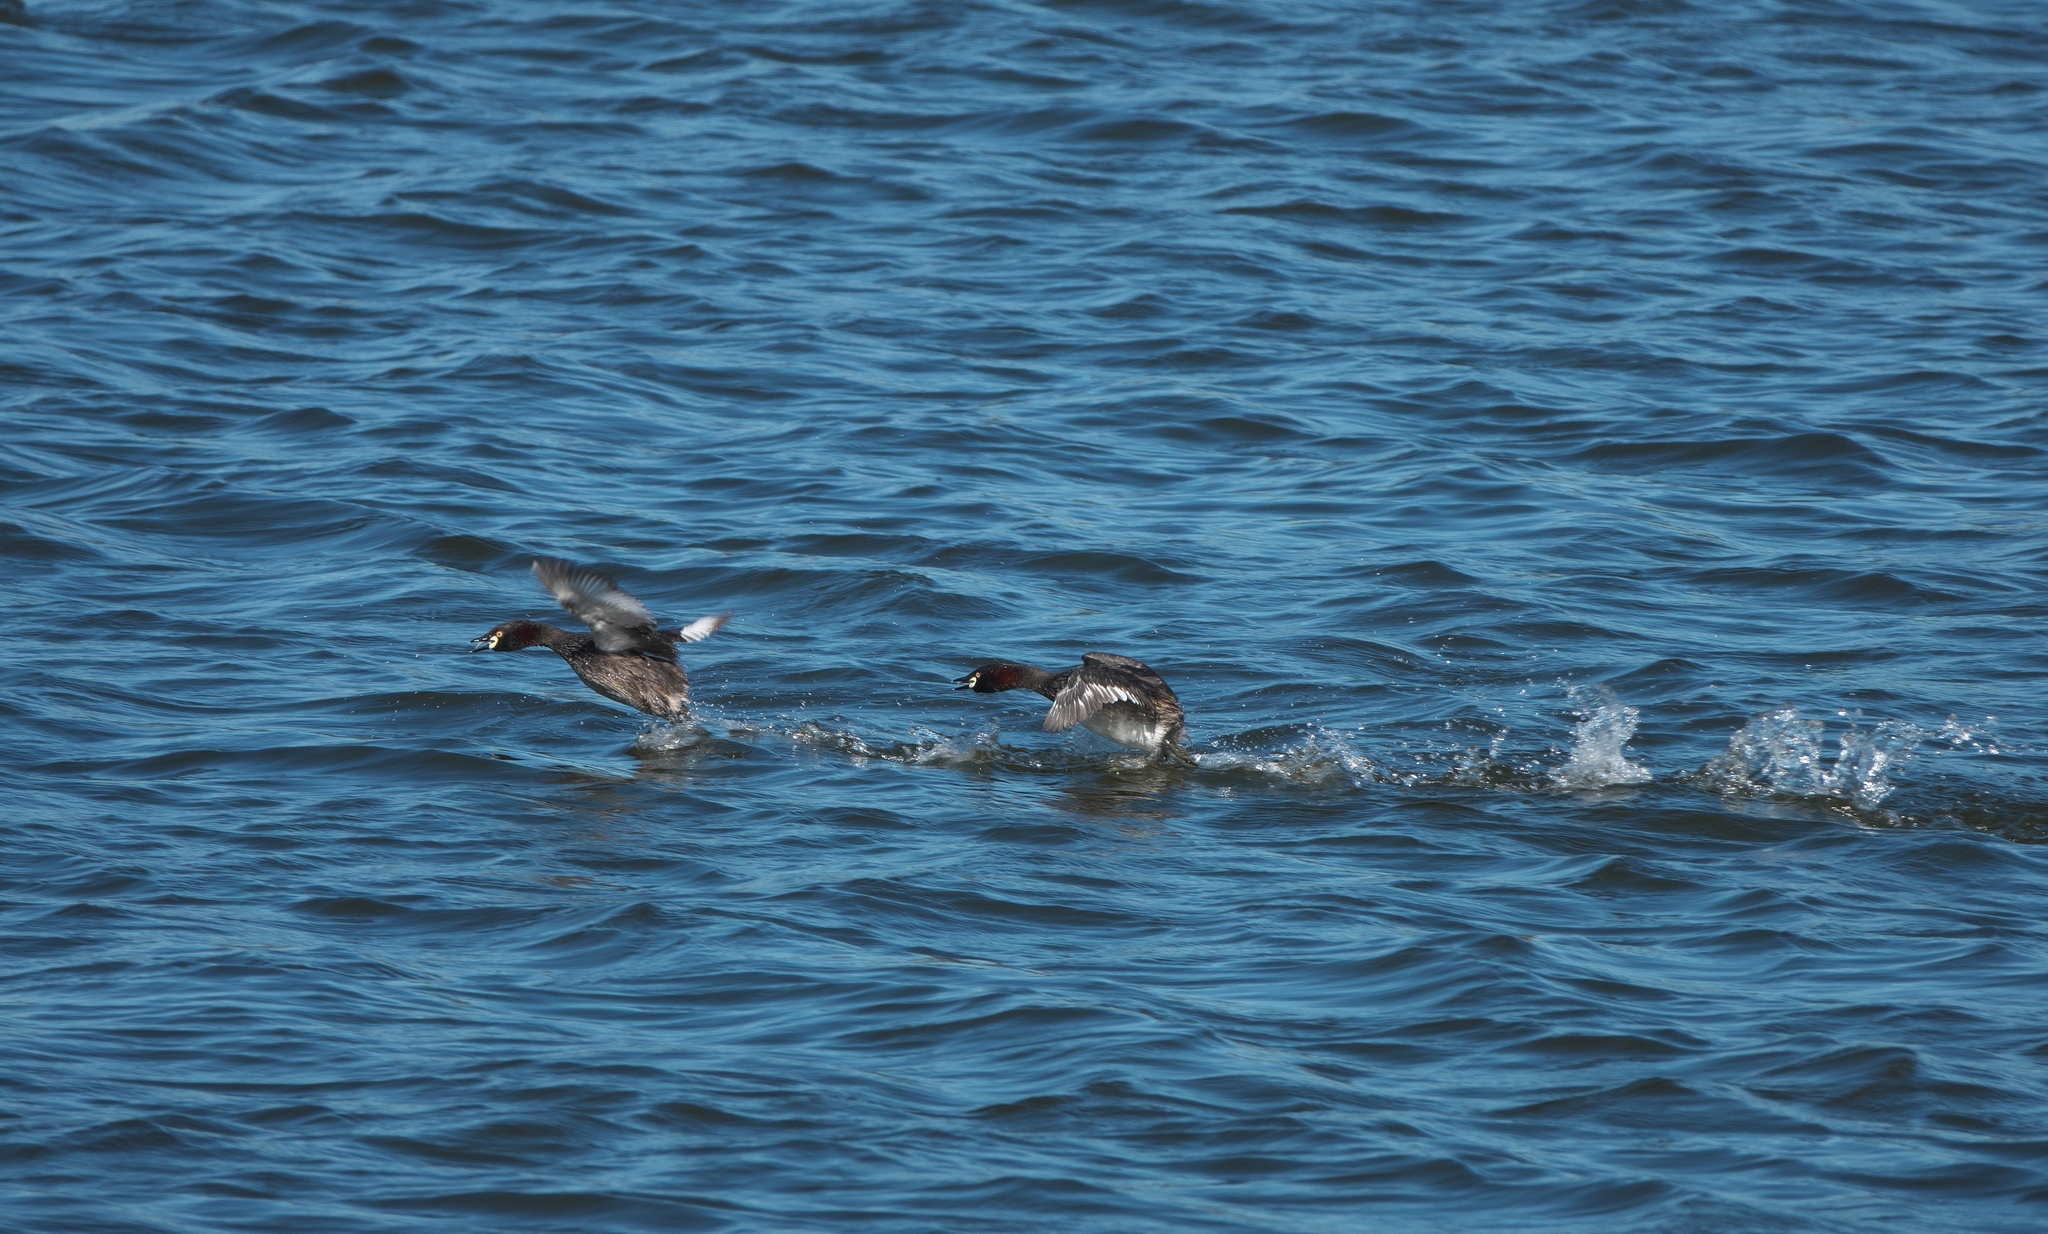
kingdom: Animalia
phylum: Chordata
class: Aves
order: Podicipediformes
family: Podicipedidae
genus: Tachybaptus
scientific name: Tachybaptus novaehollandiae
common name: Australasian grebe
